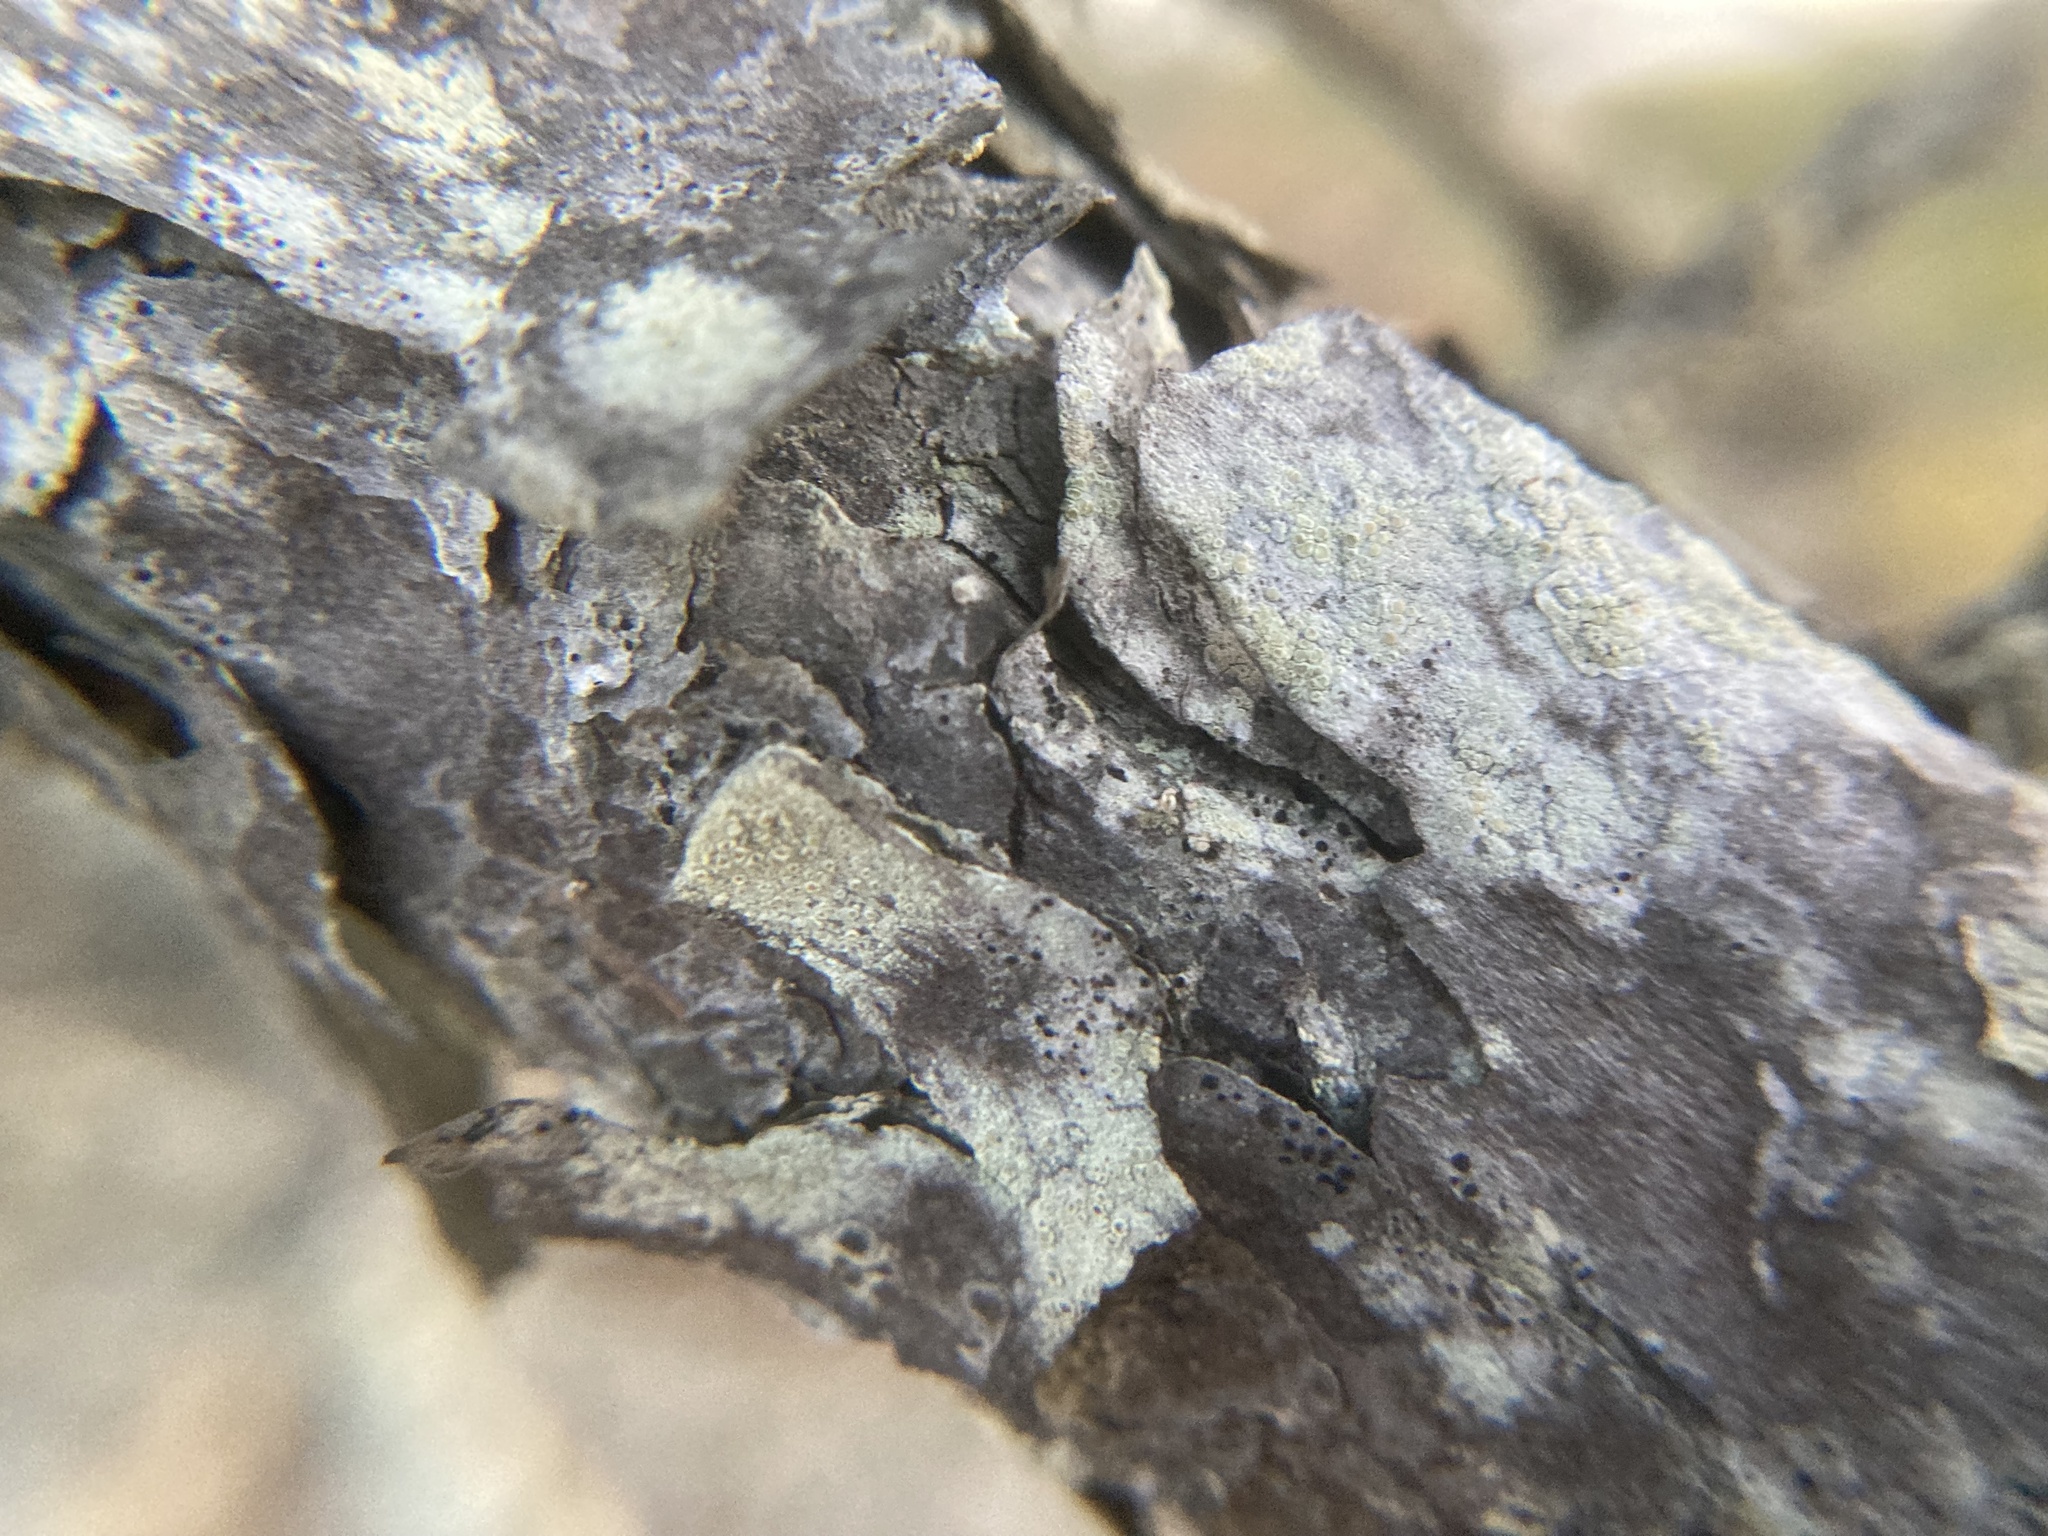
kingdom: Plantae
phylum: Tracheophyta
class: Pinopsida
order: Pinales
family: Pinaceae
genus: Pinus
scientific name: Pinus rigida
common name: Pitch pine
